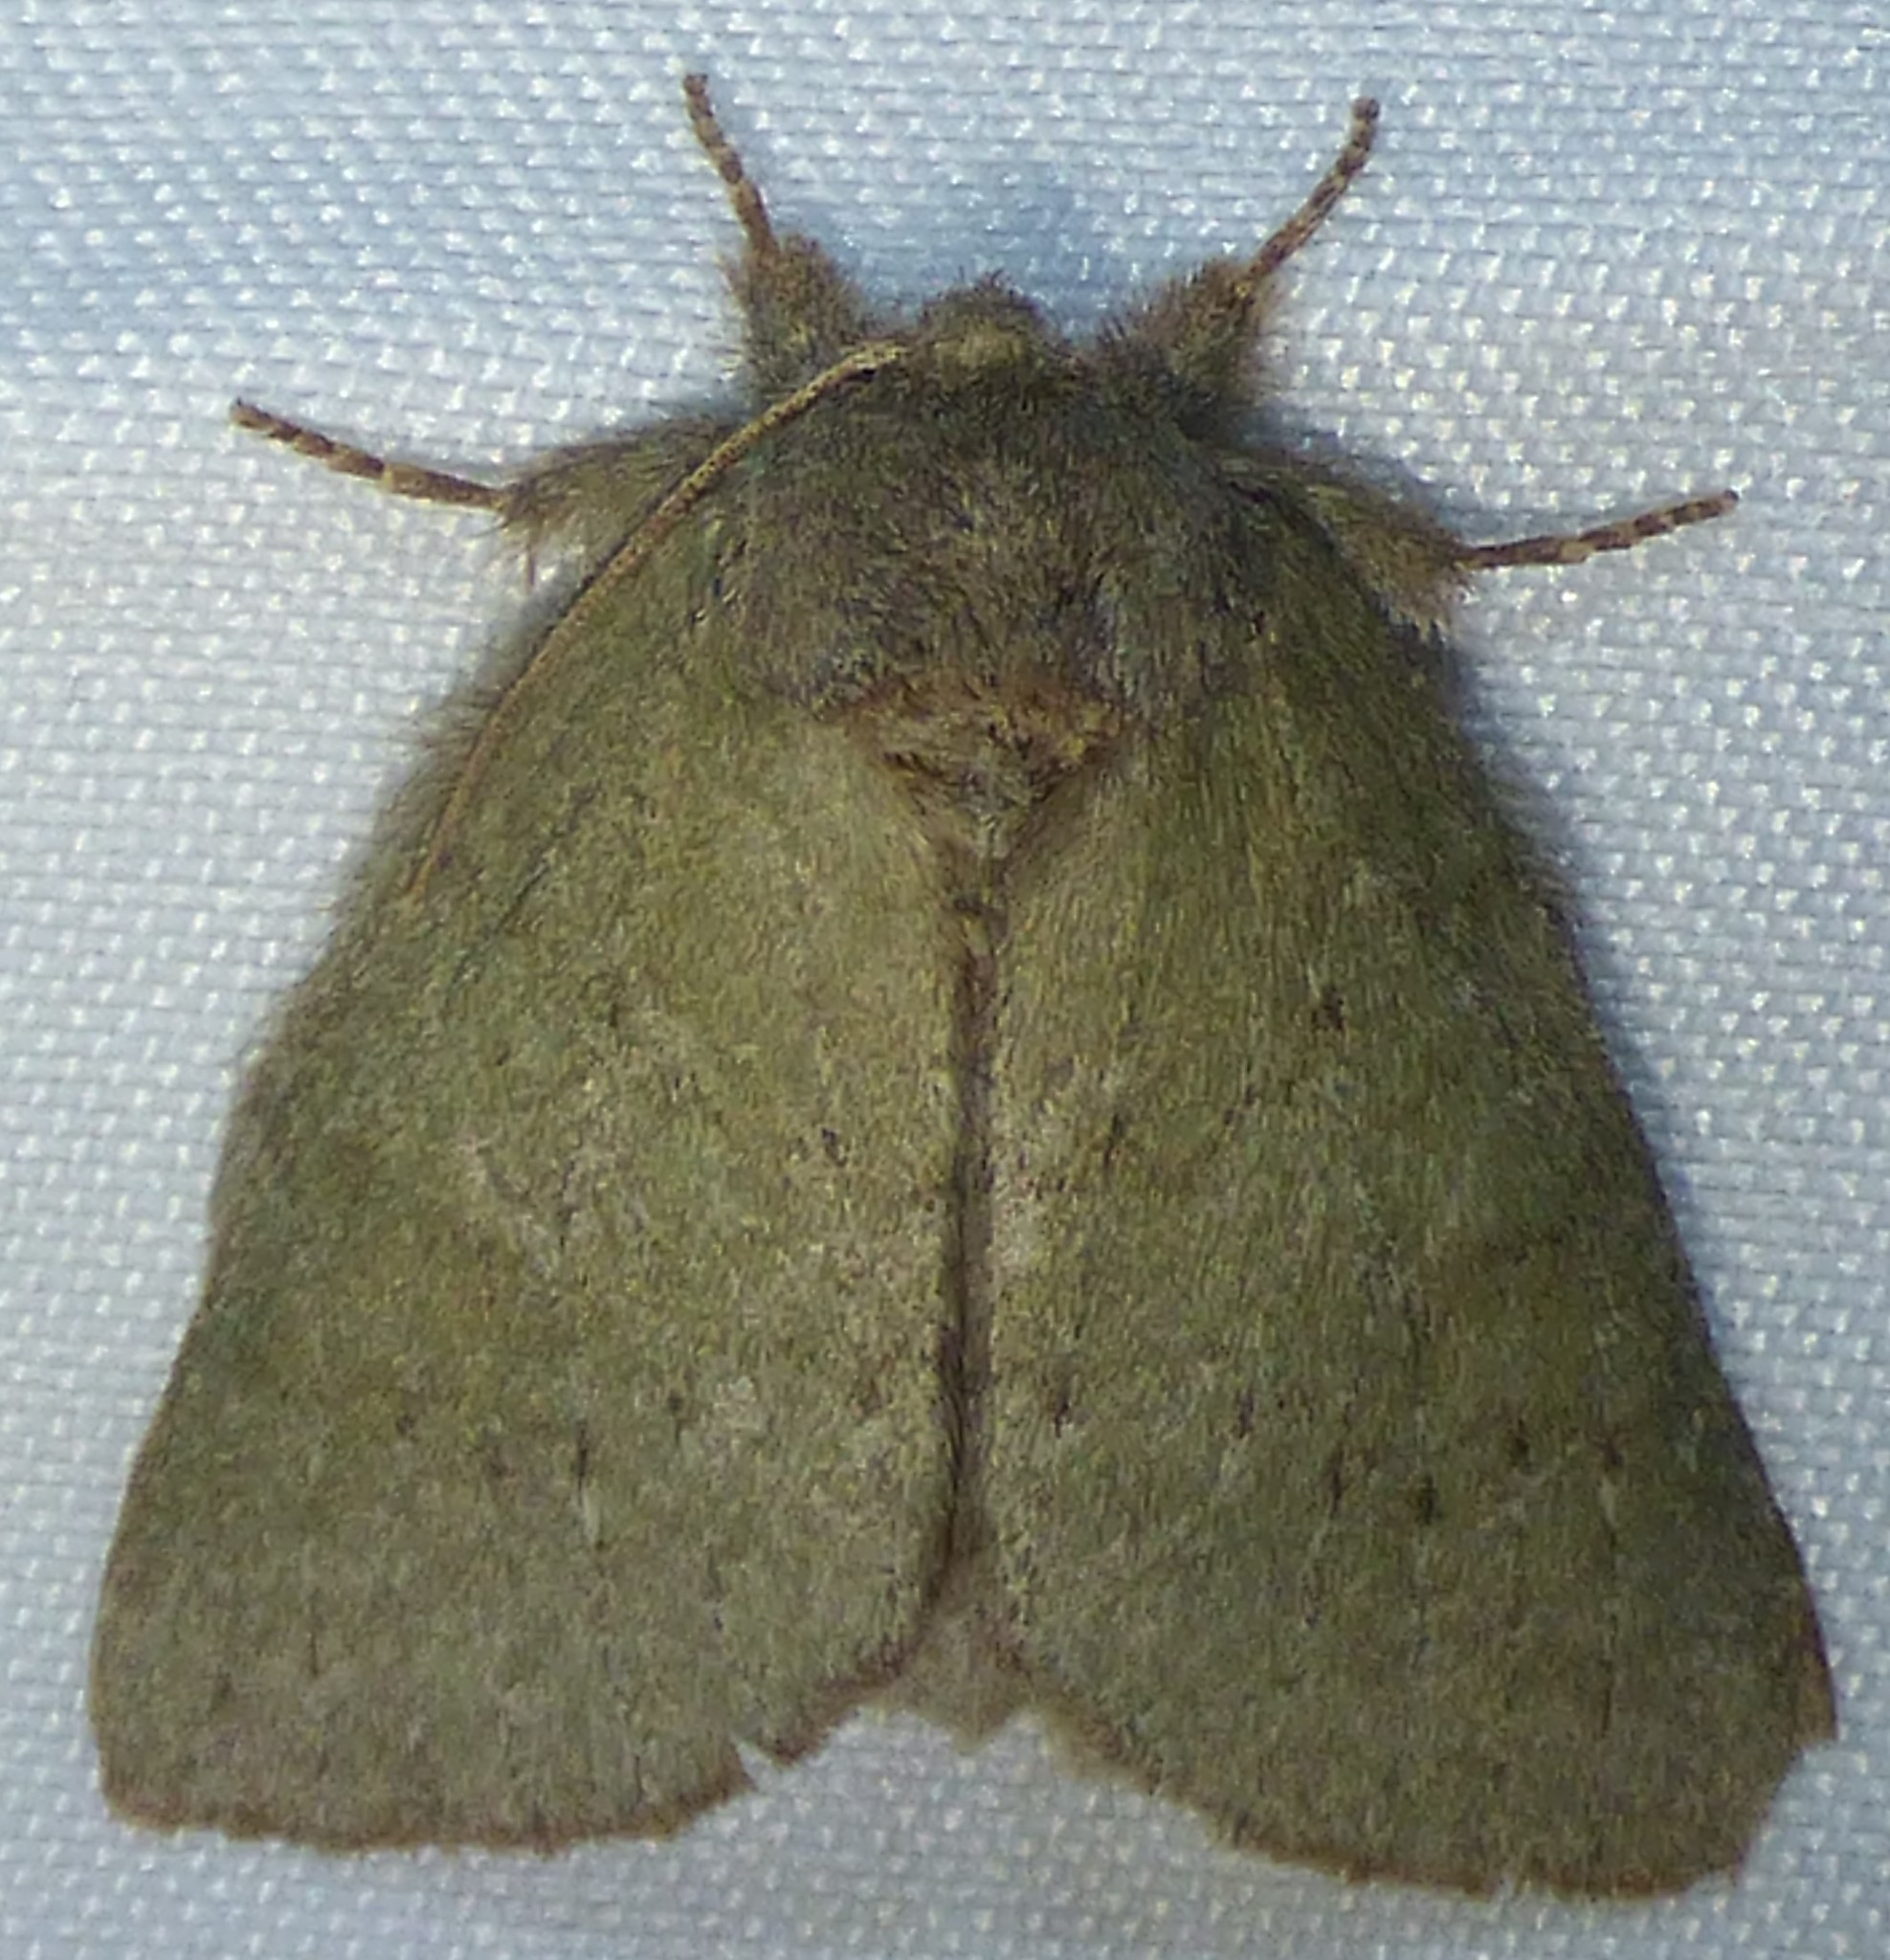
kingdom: Animalia
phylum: Arthropoda
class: Insecta
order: Lepidoptera
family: Notodontidae
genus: Misogada
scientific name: Misogada unicolor
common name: Drab prominent
